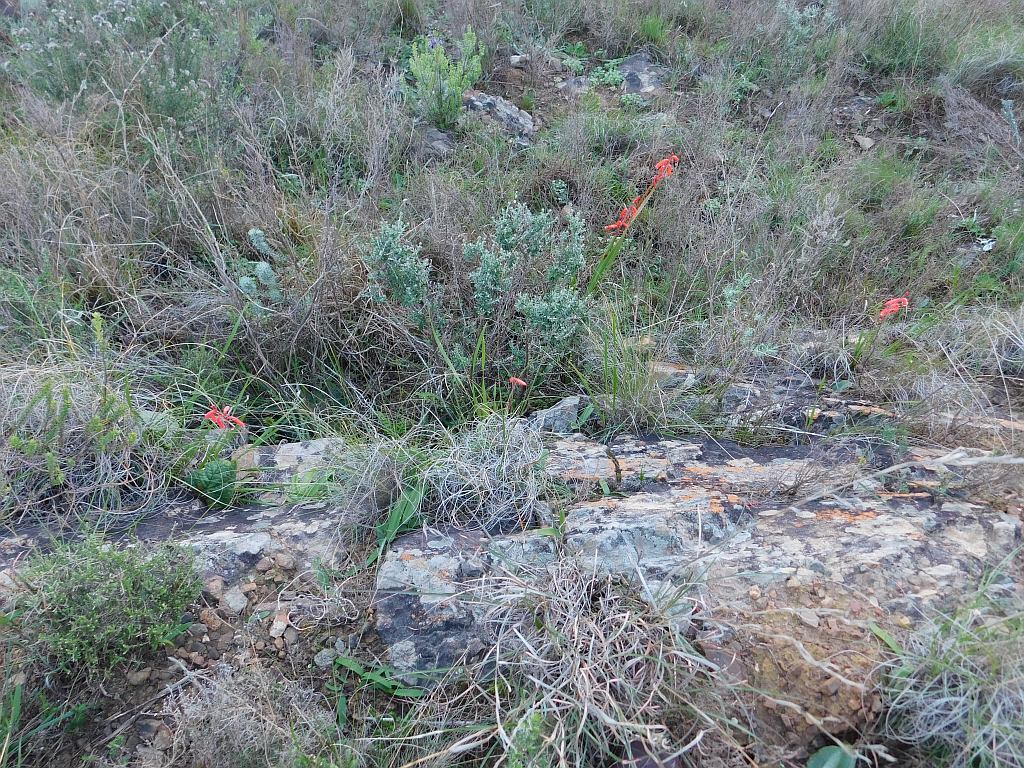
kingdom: Plantae
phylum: Tracheophyta
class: Liliopsida
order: Asparagales
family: Iridaceae
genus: Watsonia
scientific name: Watsonia aletroides
